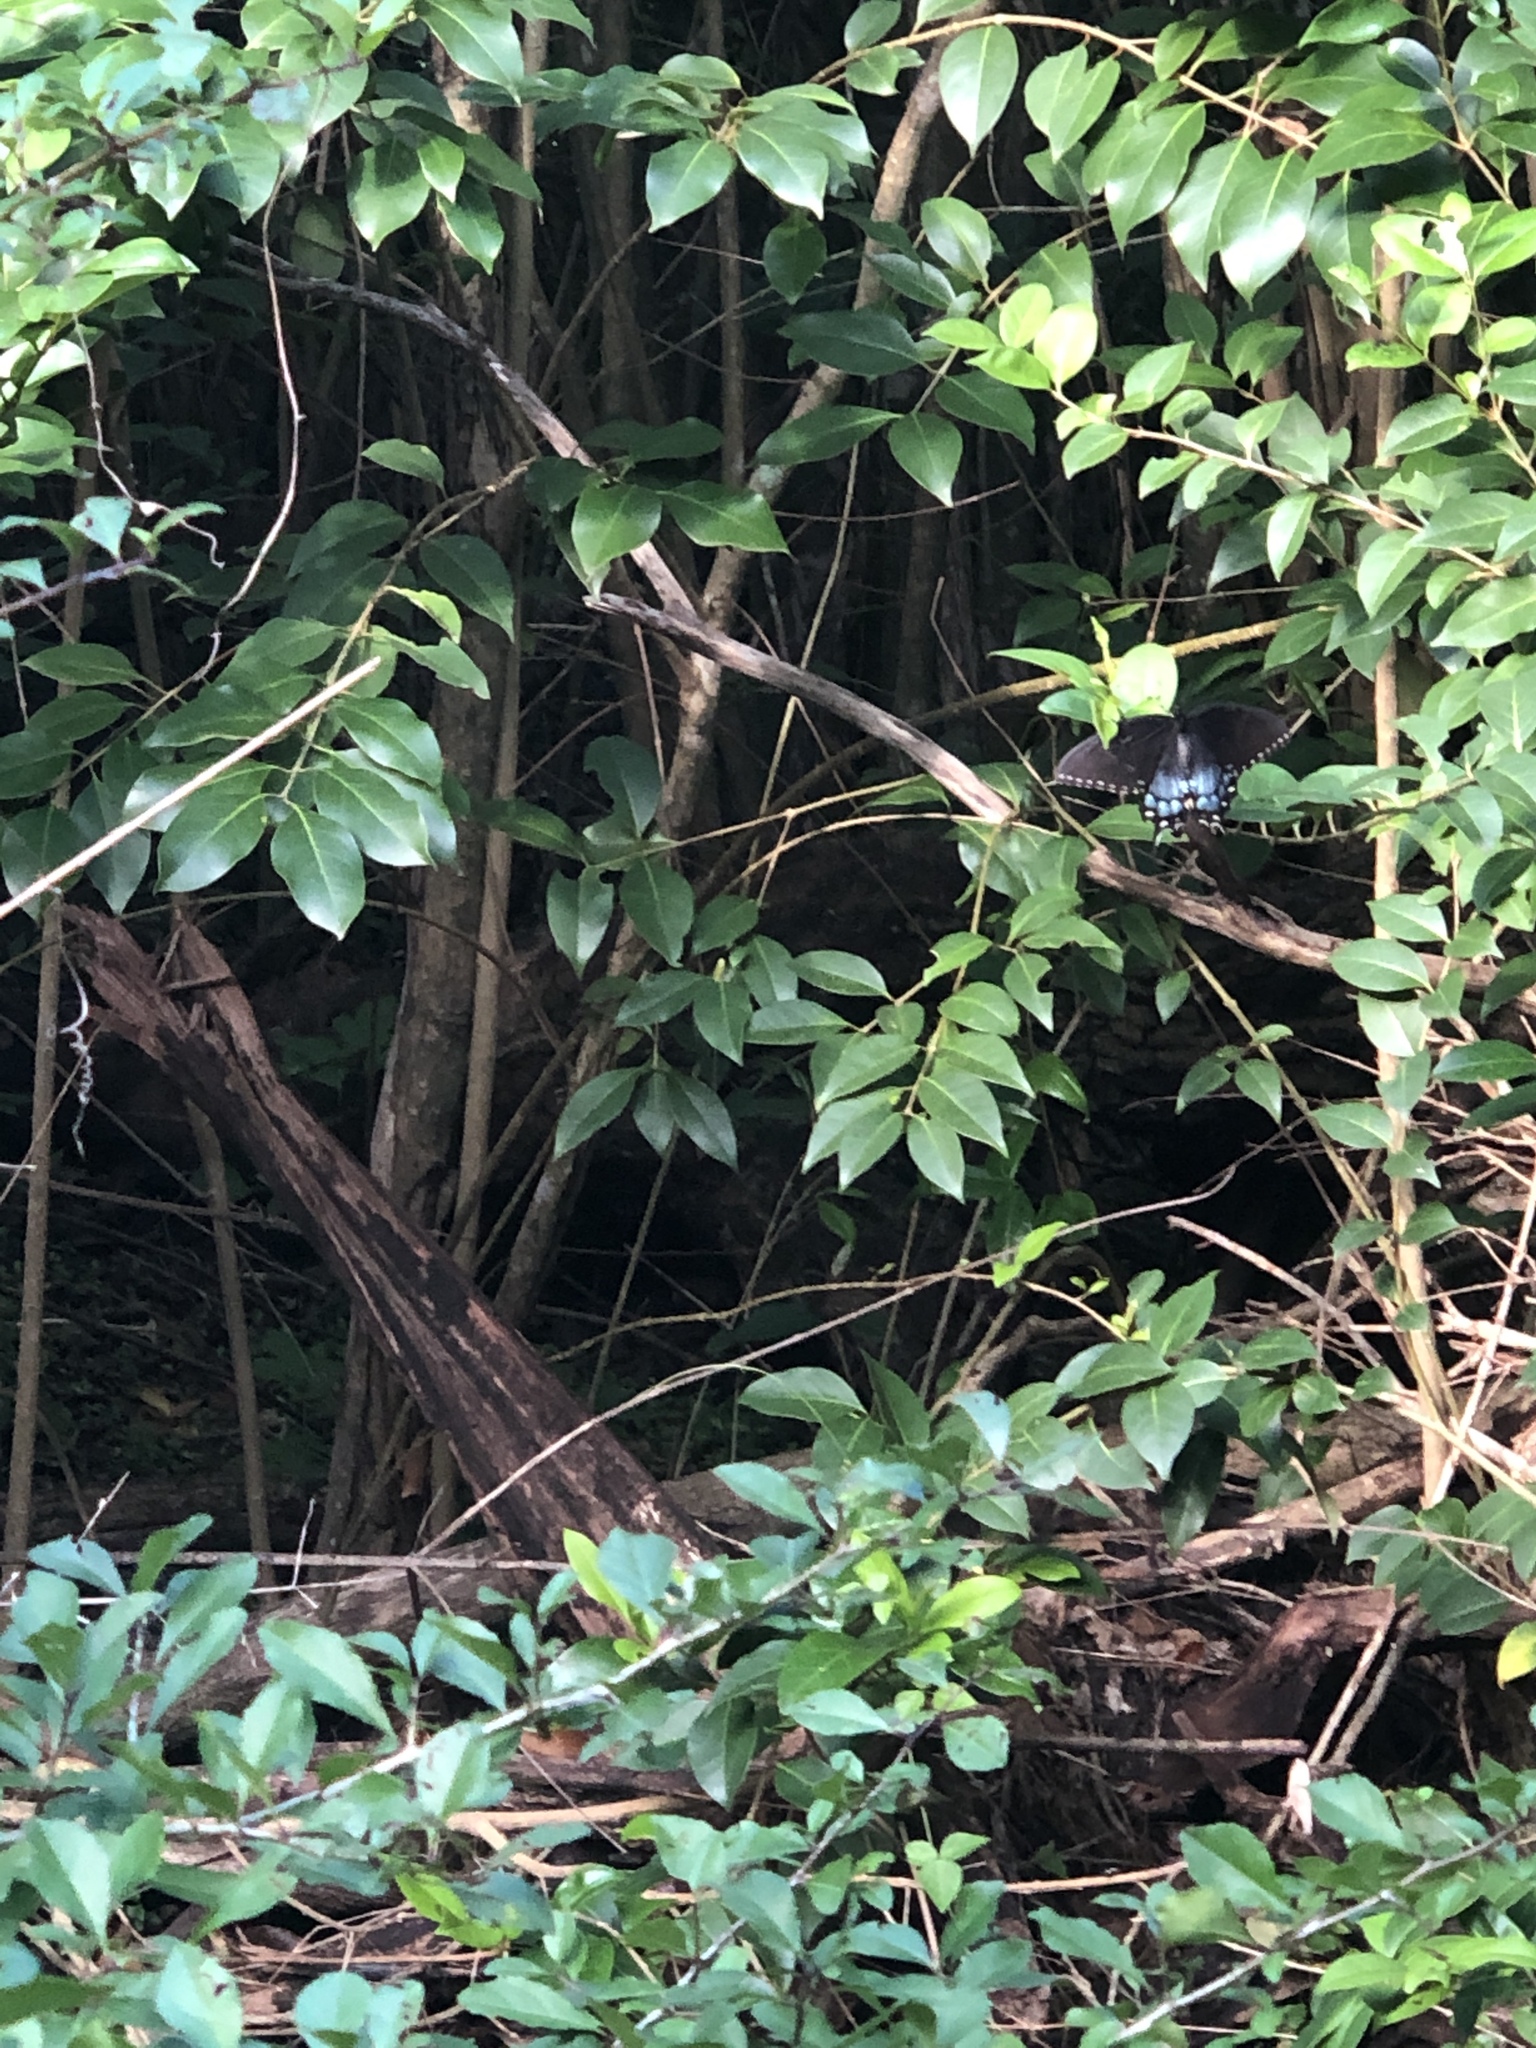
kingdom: Animalia
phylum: Arthropoda
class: Insecta
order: Lepidoptera
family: Papilionidae
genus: Papilio
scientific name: Papilio glaucus
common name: Tiger swallowtail
